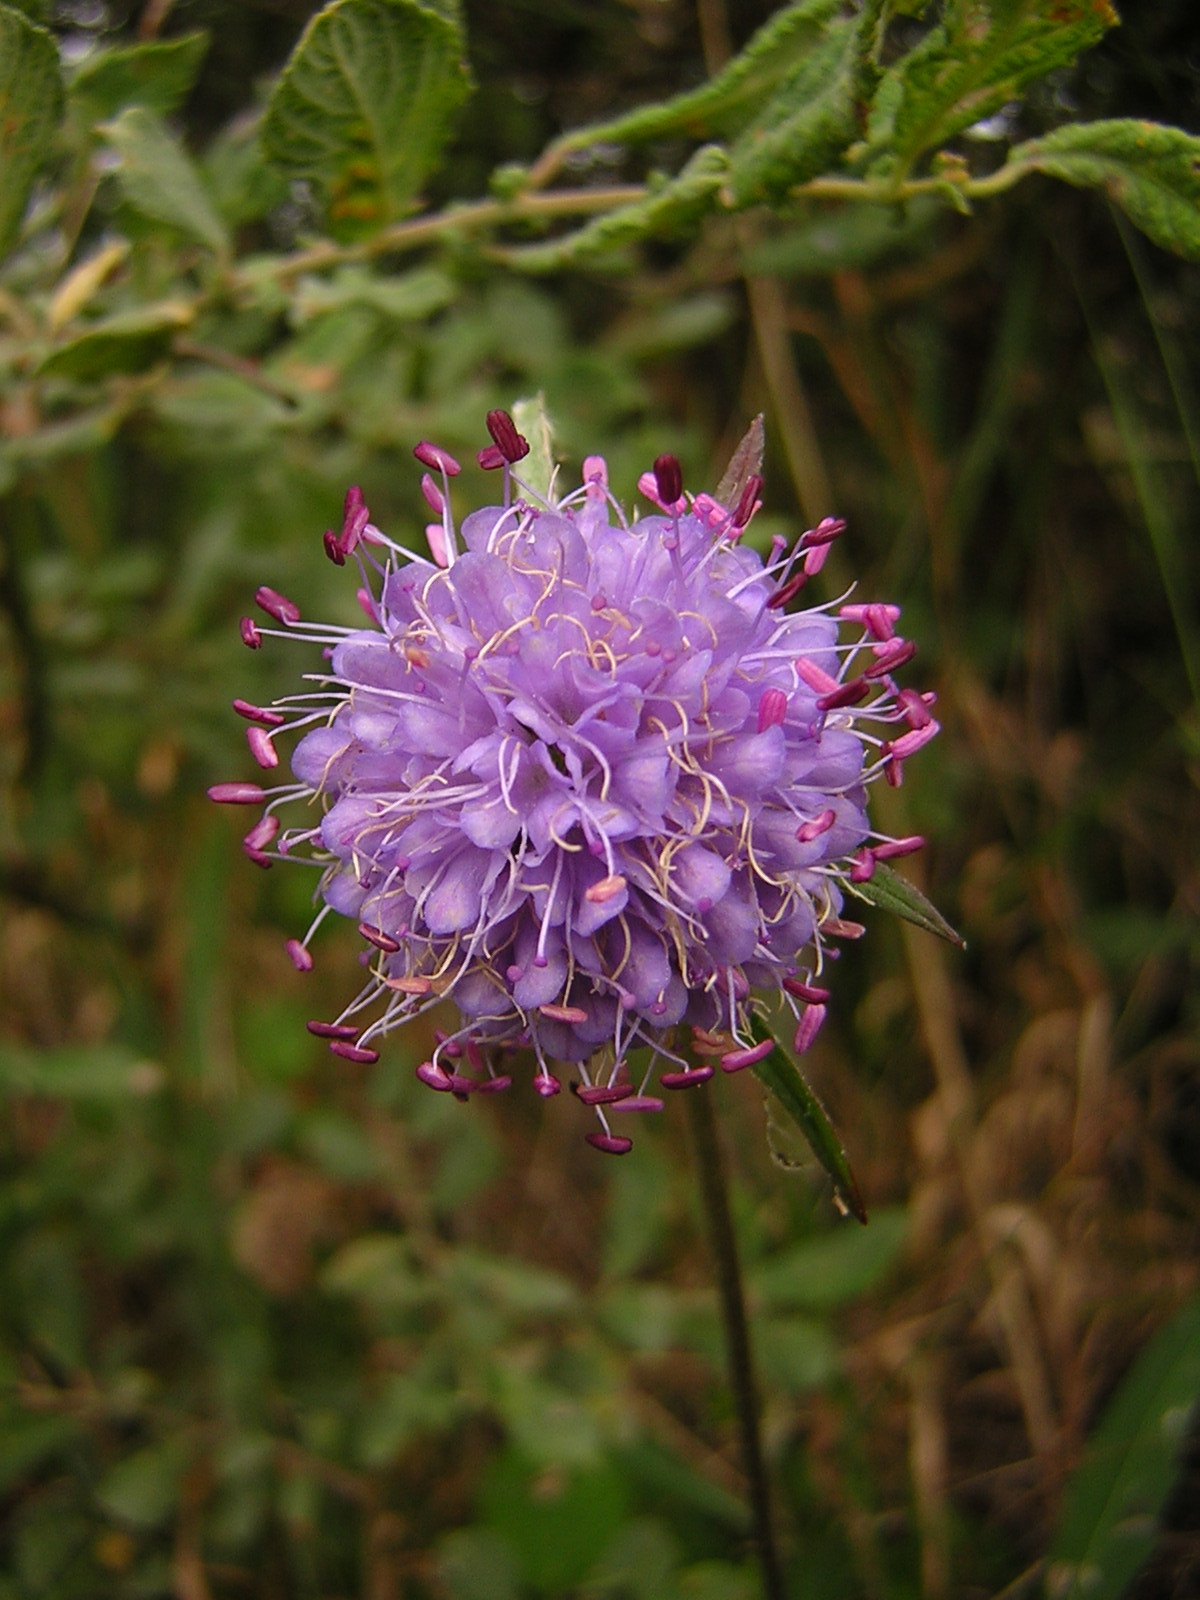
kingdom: Plantae
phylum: Tracheophyta
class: Magnoliopsida
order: Dipsacales
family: Caprifoliaceae
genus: Succisa
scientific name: Succisa pratensis
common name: Devil's-bit
